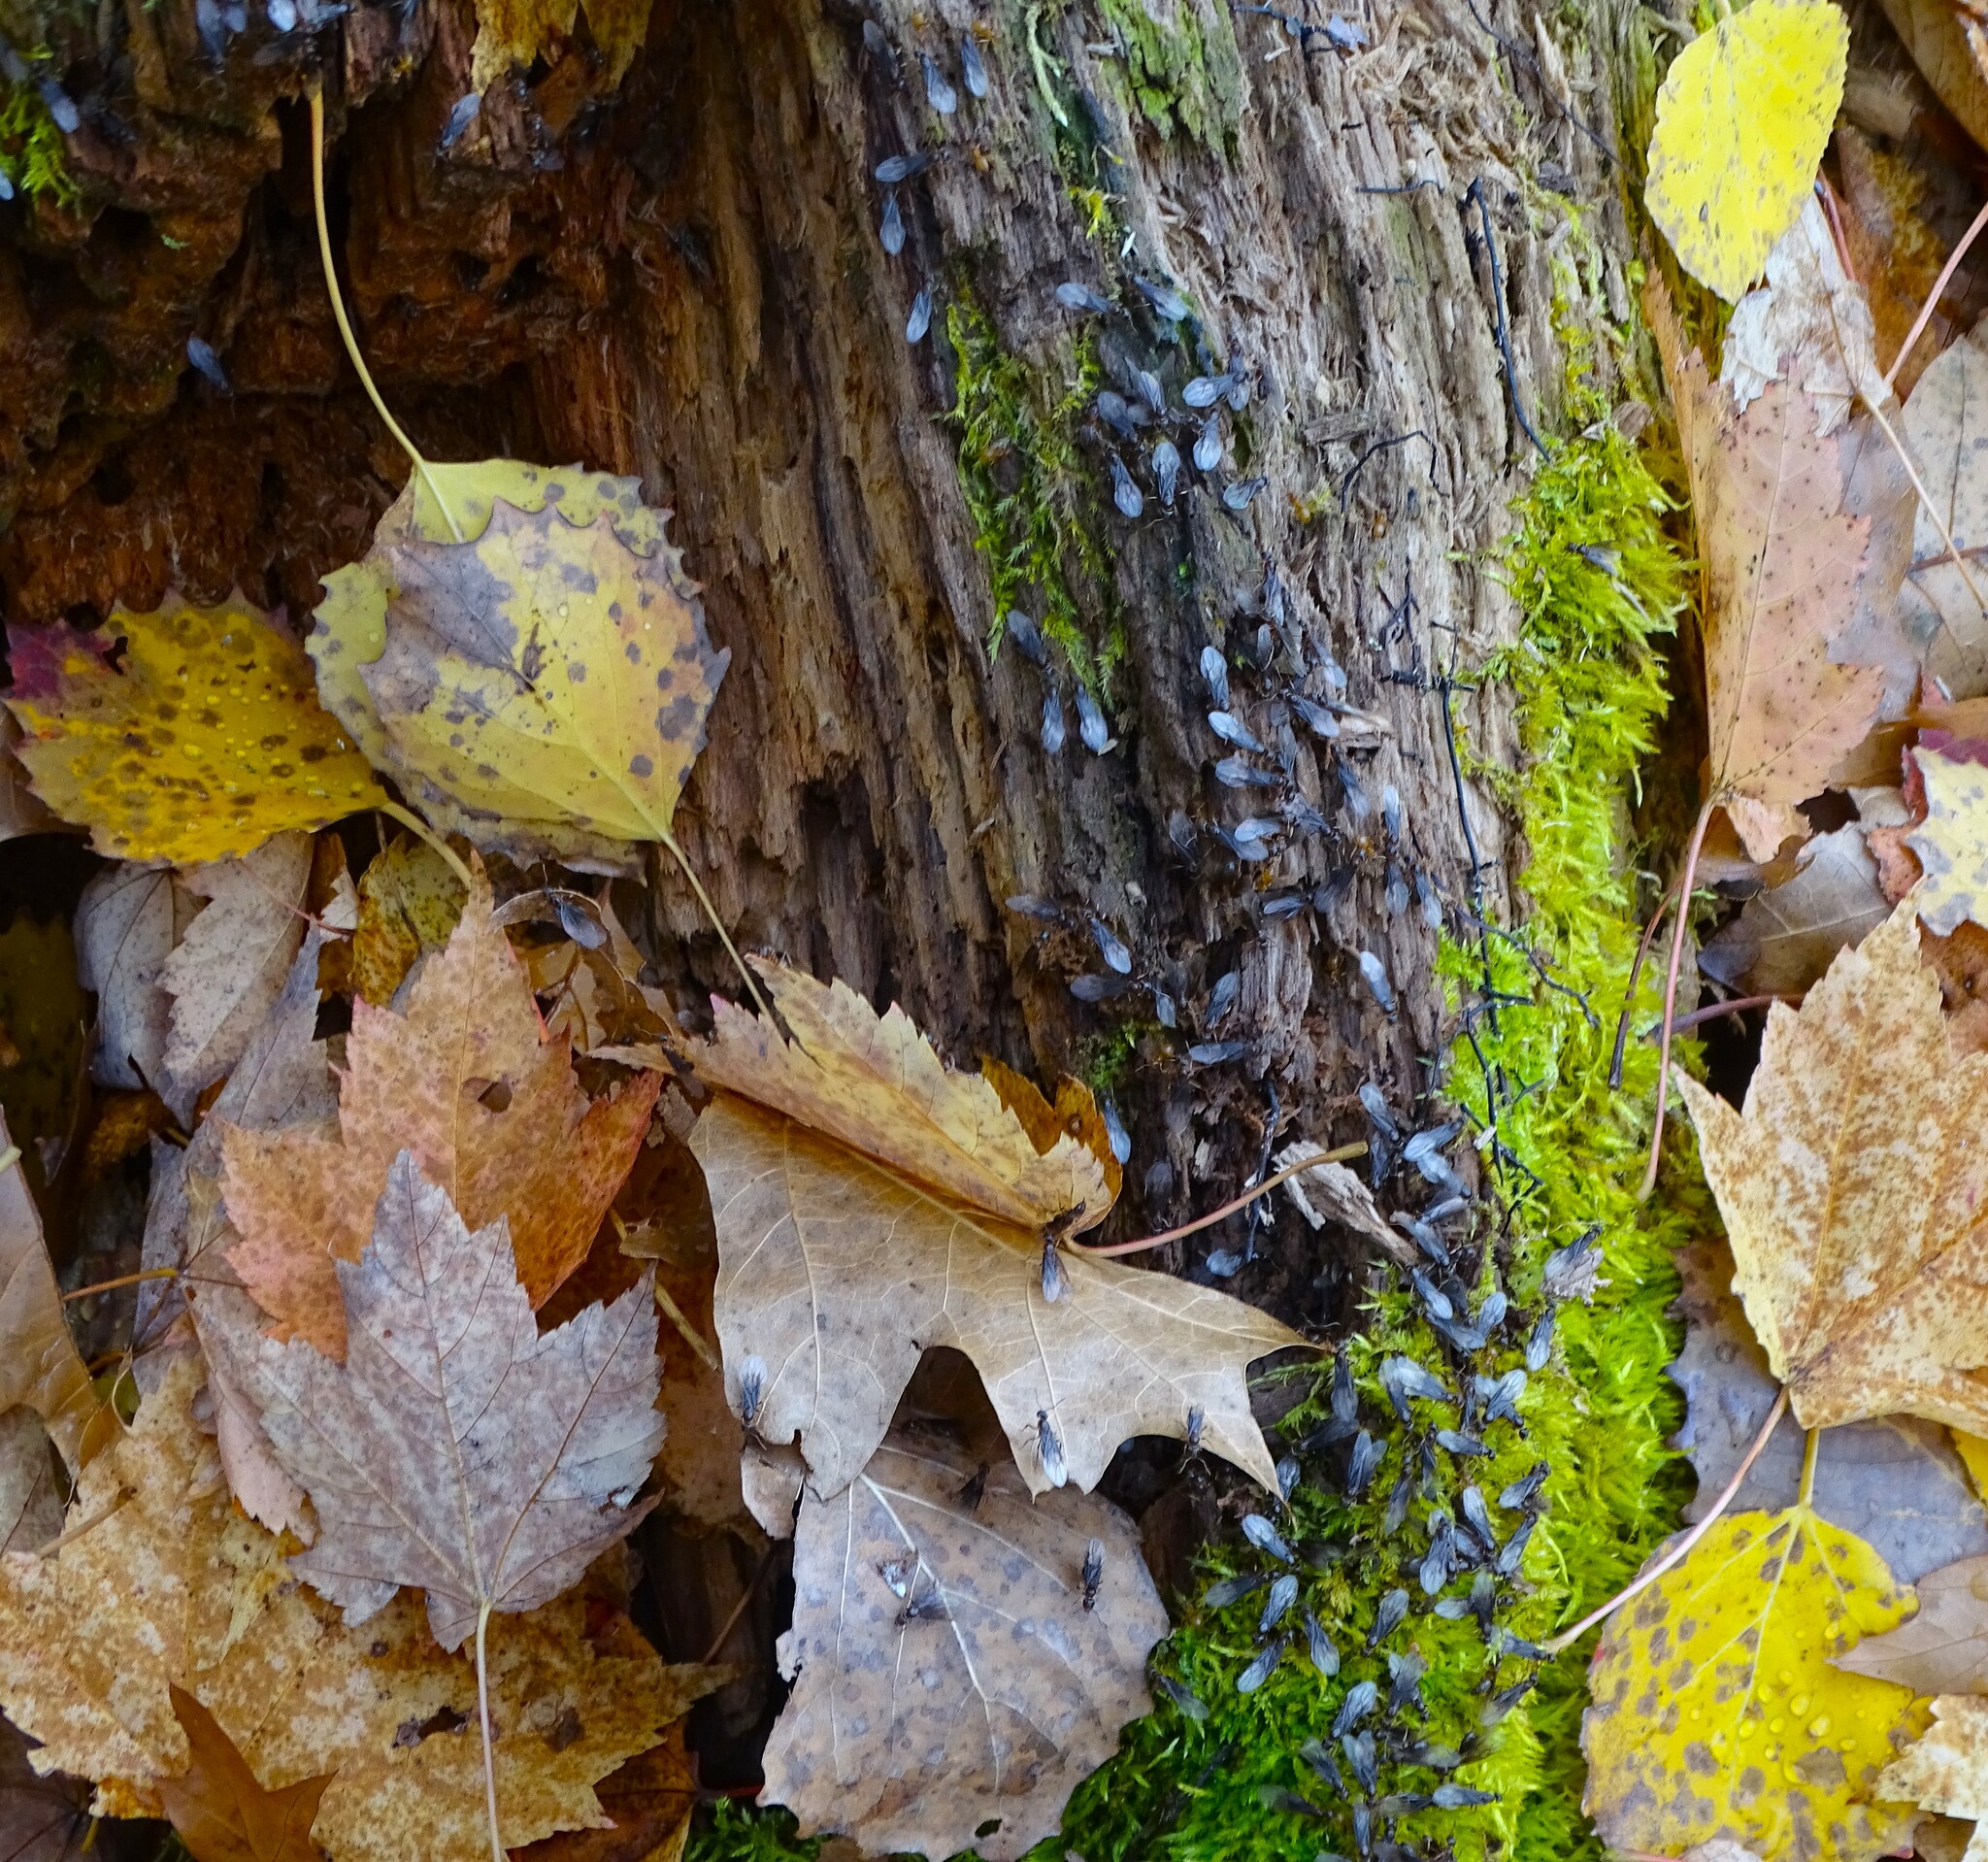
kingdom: Animalia
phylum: Arthropoda
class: Insecta
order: Hymenoptera
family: Formicidae
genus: Lasius
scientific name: Lasius aphidicola
